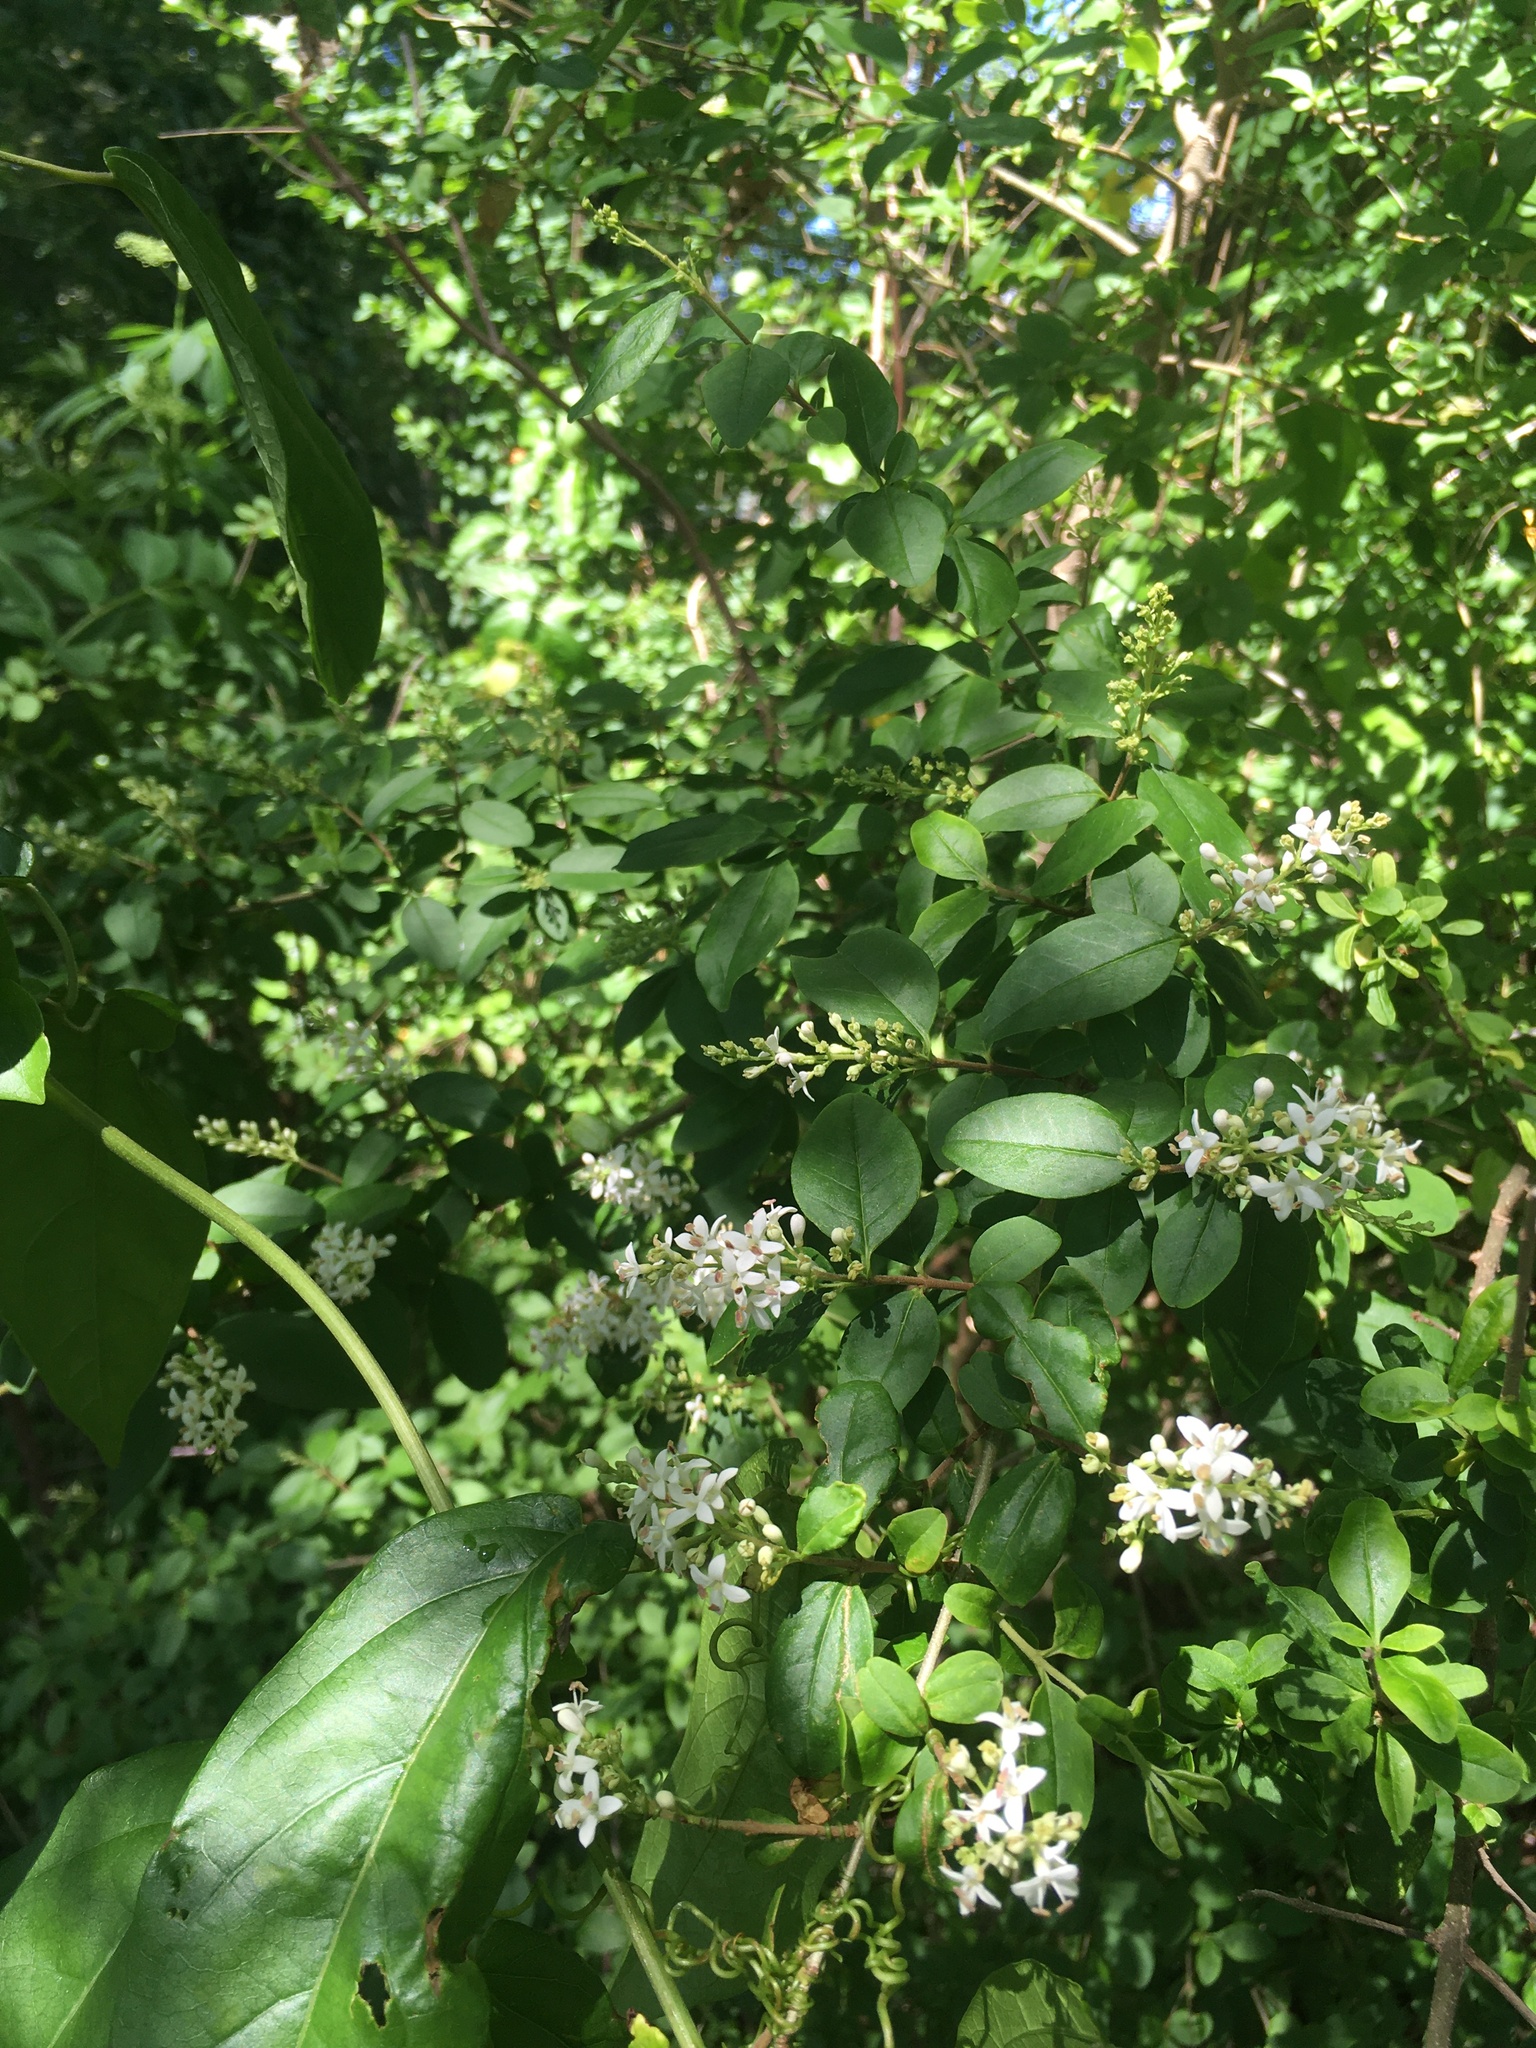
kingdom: Plantae
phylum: Tracheophyta
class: Magnoliopsida
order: Lamiales
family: Oleaceae
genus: Ligustrum
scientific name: Ligustrum sinense
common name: Chinese privet
